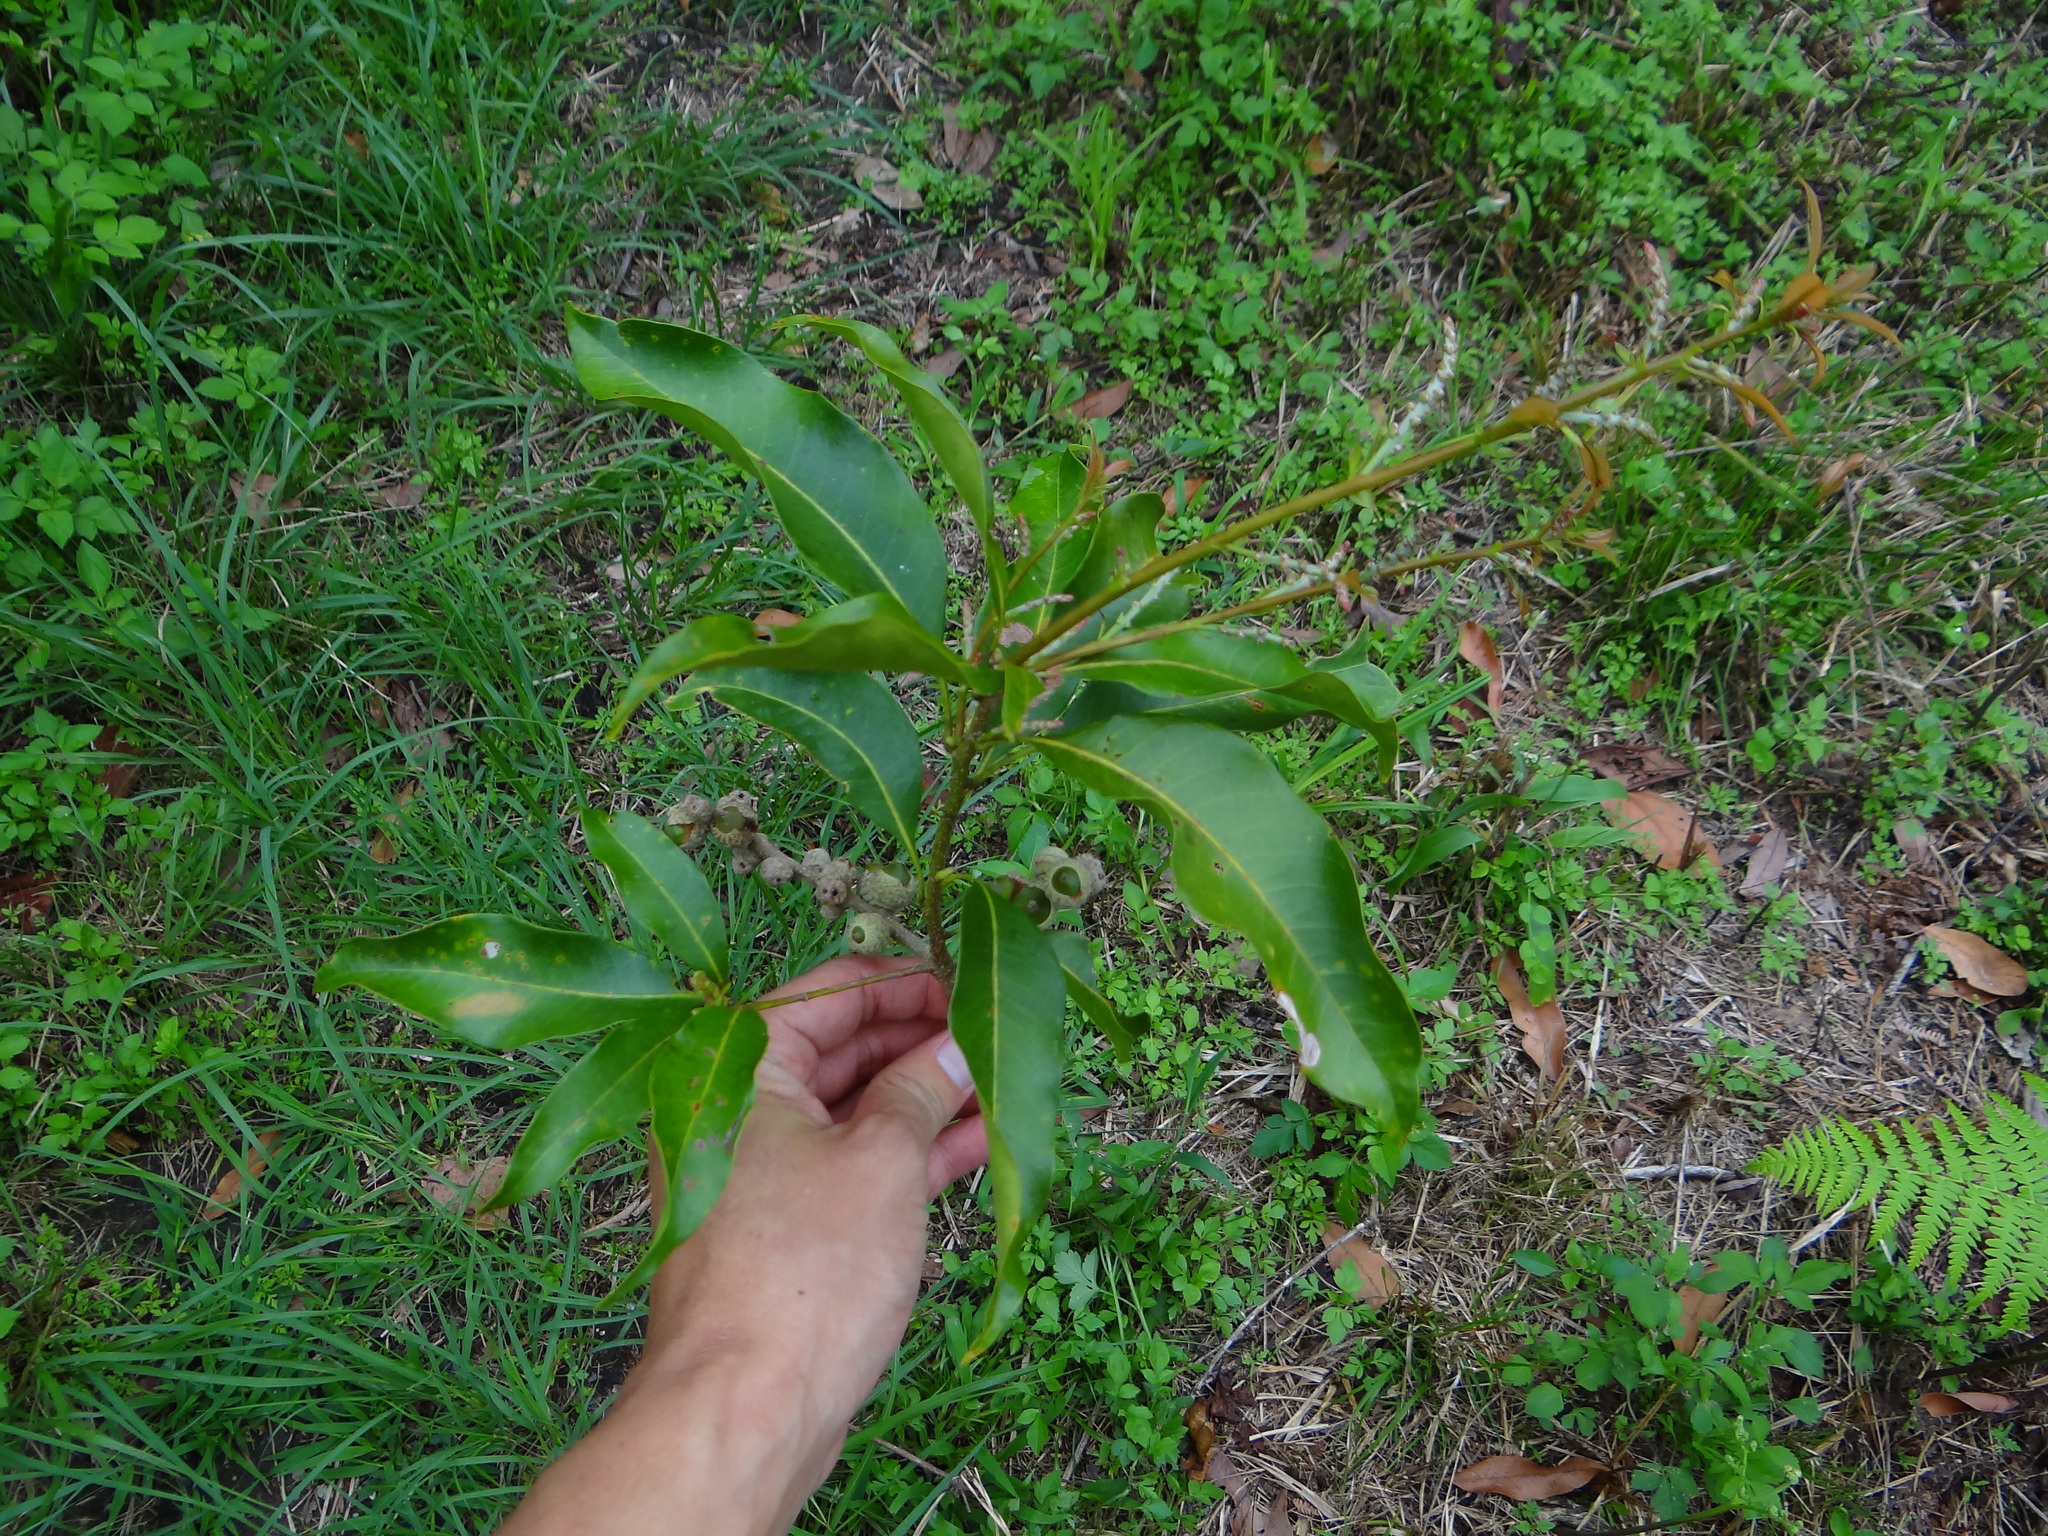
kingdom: Plantae
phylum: Tracheophyta
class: Magnoliopsida
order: Fagales
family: Fagaceae
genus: Lithocarpus
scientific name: Lithocarpus hancei
